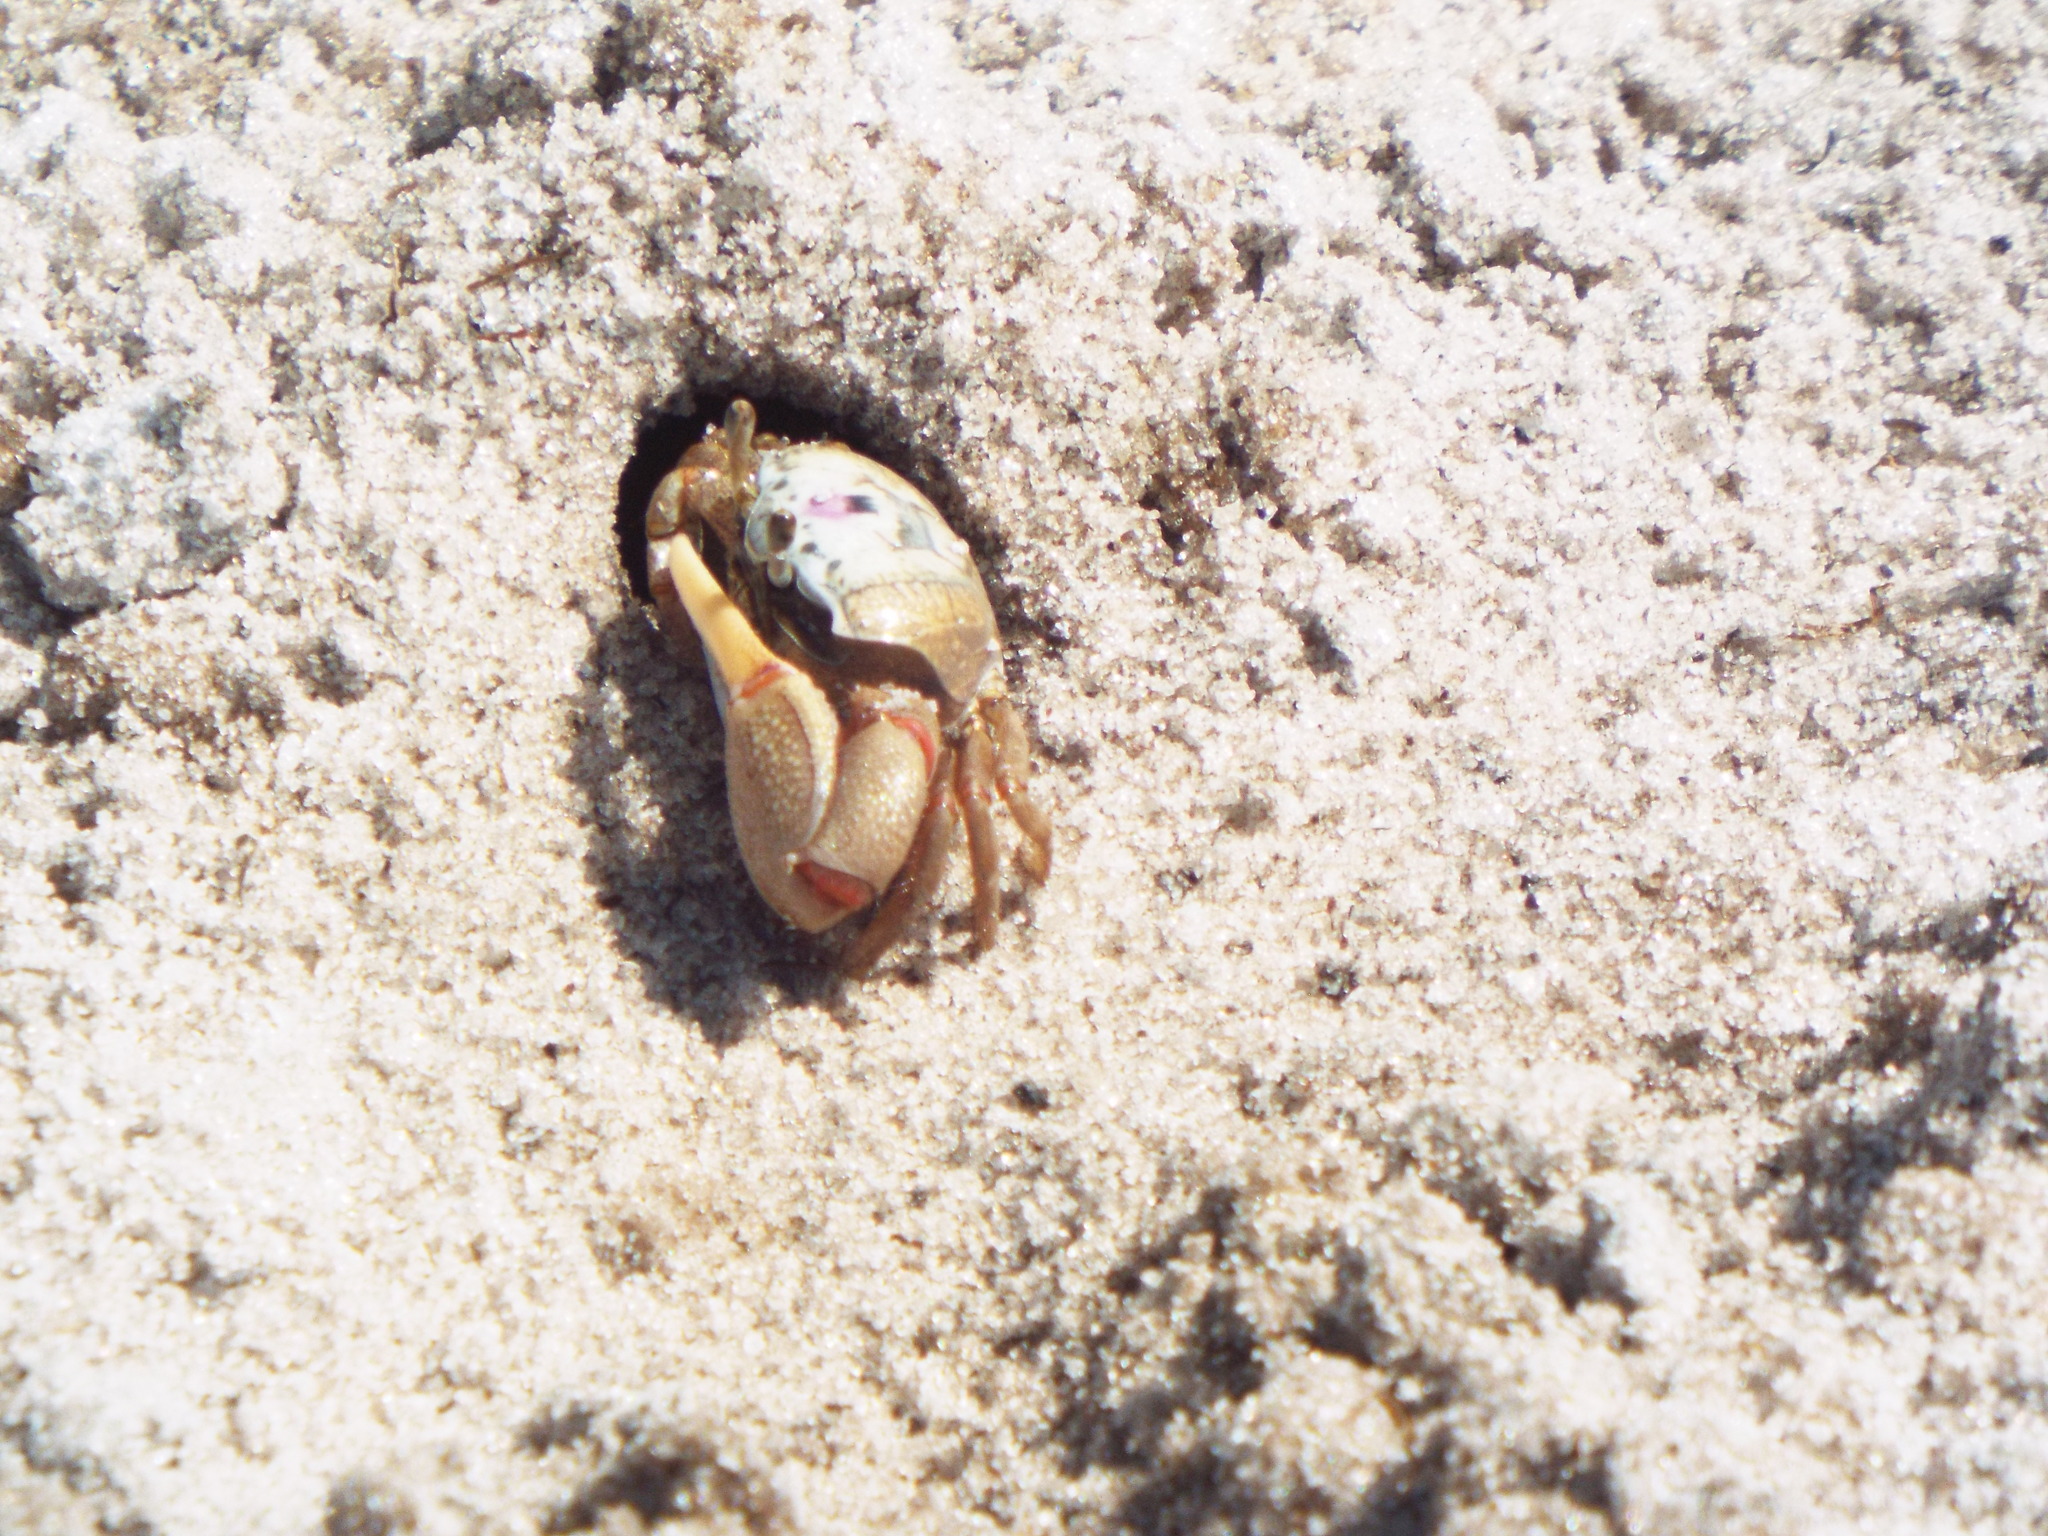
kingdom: Animalia
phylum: Arthropoda
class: Malacostraca
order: Decapoda
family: Ocypodidae
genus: Leptuca
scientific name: Leptuca pugilator
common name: Atlantic sand fiddler crab
